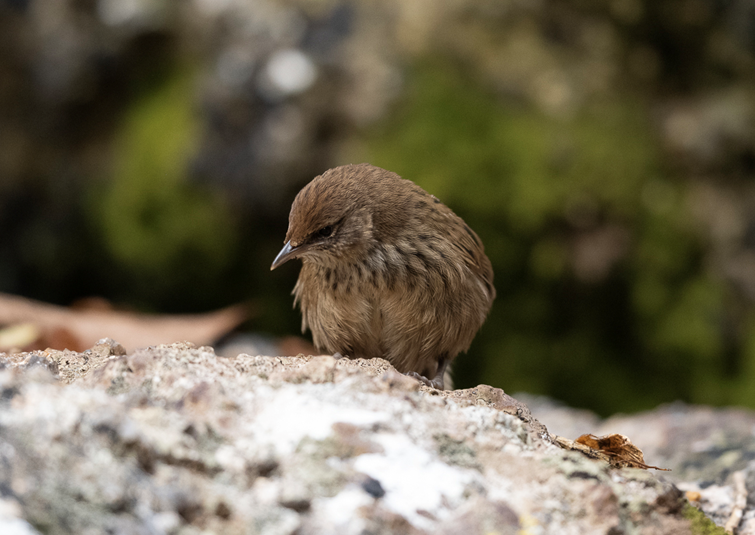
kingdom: Animalia
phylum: Chordata
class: Aves
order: Passeriformes
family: Locustellidae
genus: Megalurus
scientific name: Megalurus punctatus
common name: New zealand fernbird
